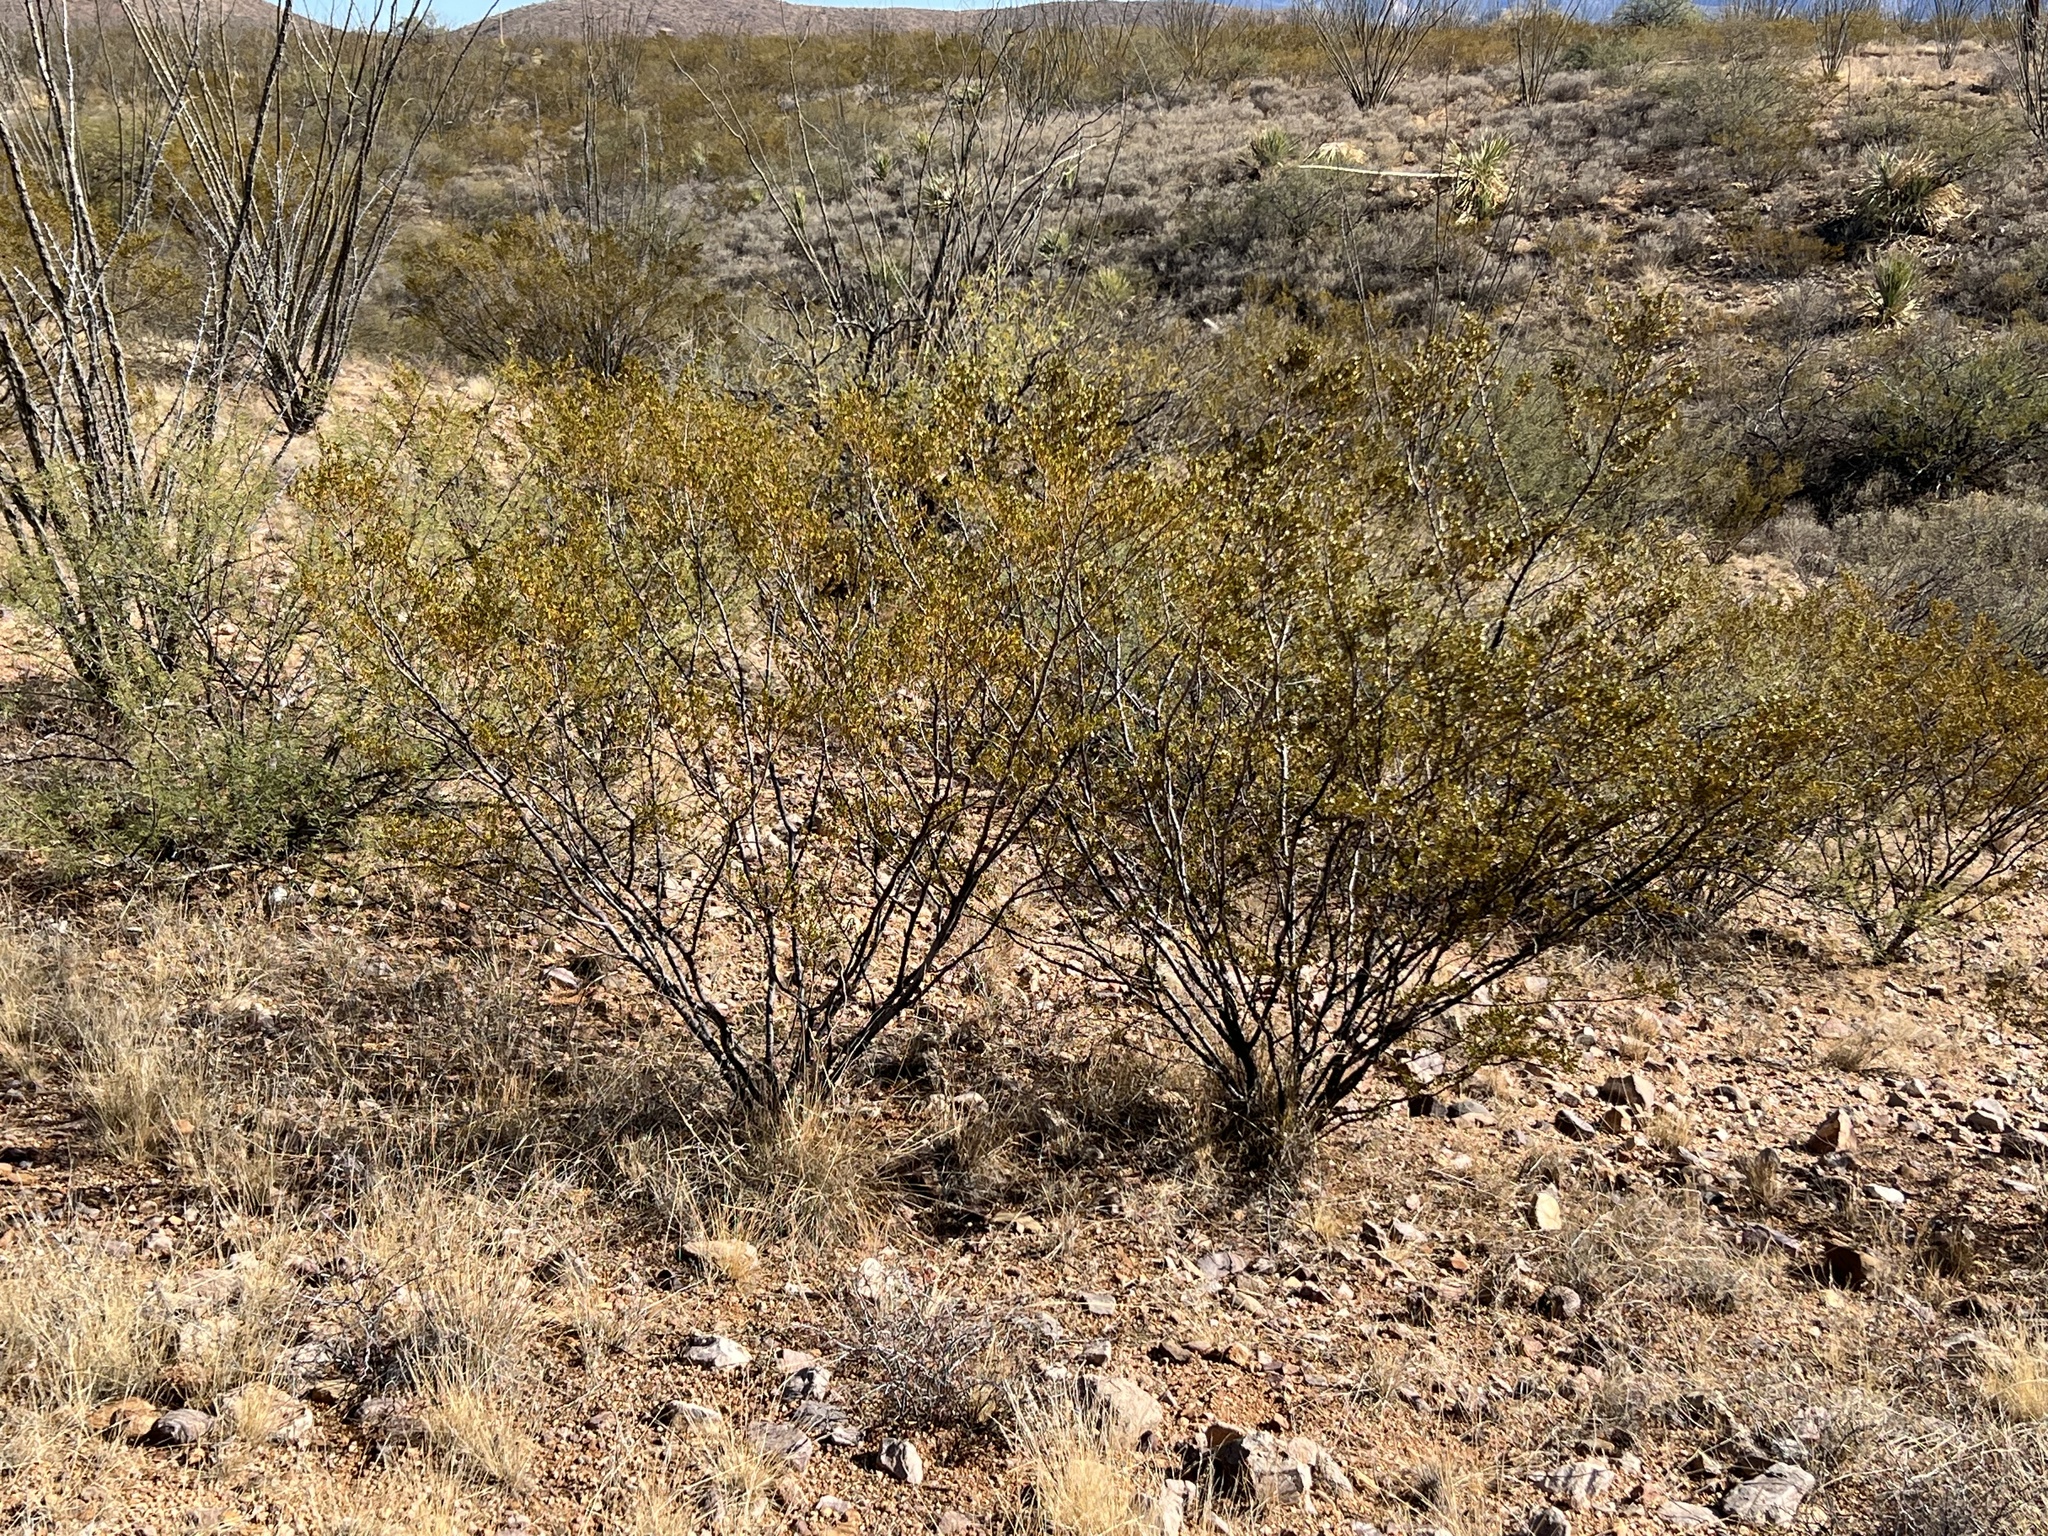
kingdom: Plantae
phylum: Tracheophyta
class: Magnoliopsida
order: Zygophyllales
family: Zygophyllaceae
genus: Larrea
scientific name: Larrea tridentata
